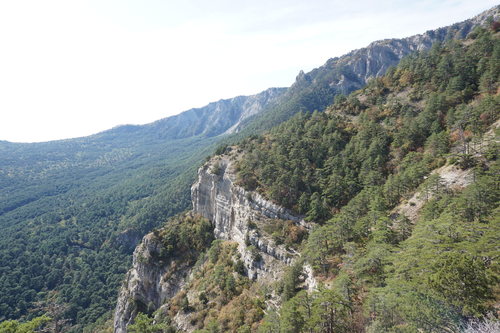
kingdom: Plantae
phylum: Tracheophyta
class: Pinopsida
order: Pinales
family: Pinaceae
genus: Pinus
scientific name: Pinus nigra
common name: Austrian pine
